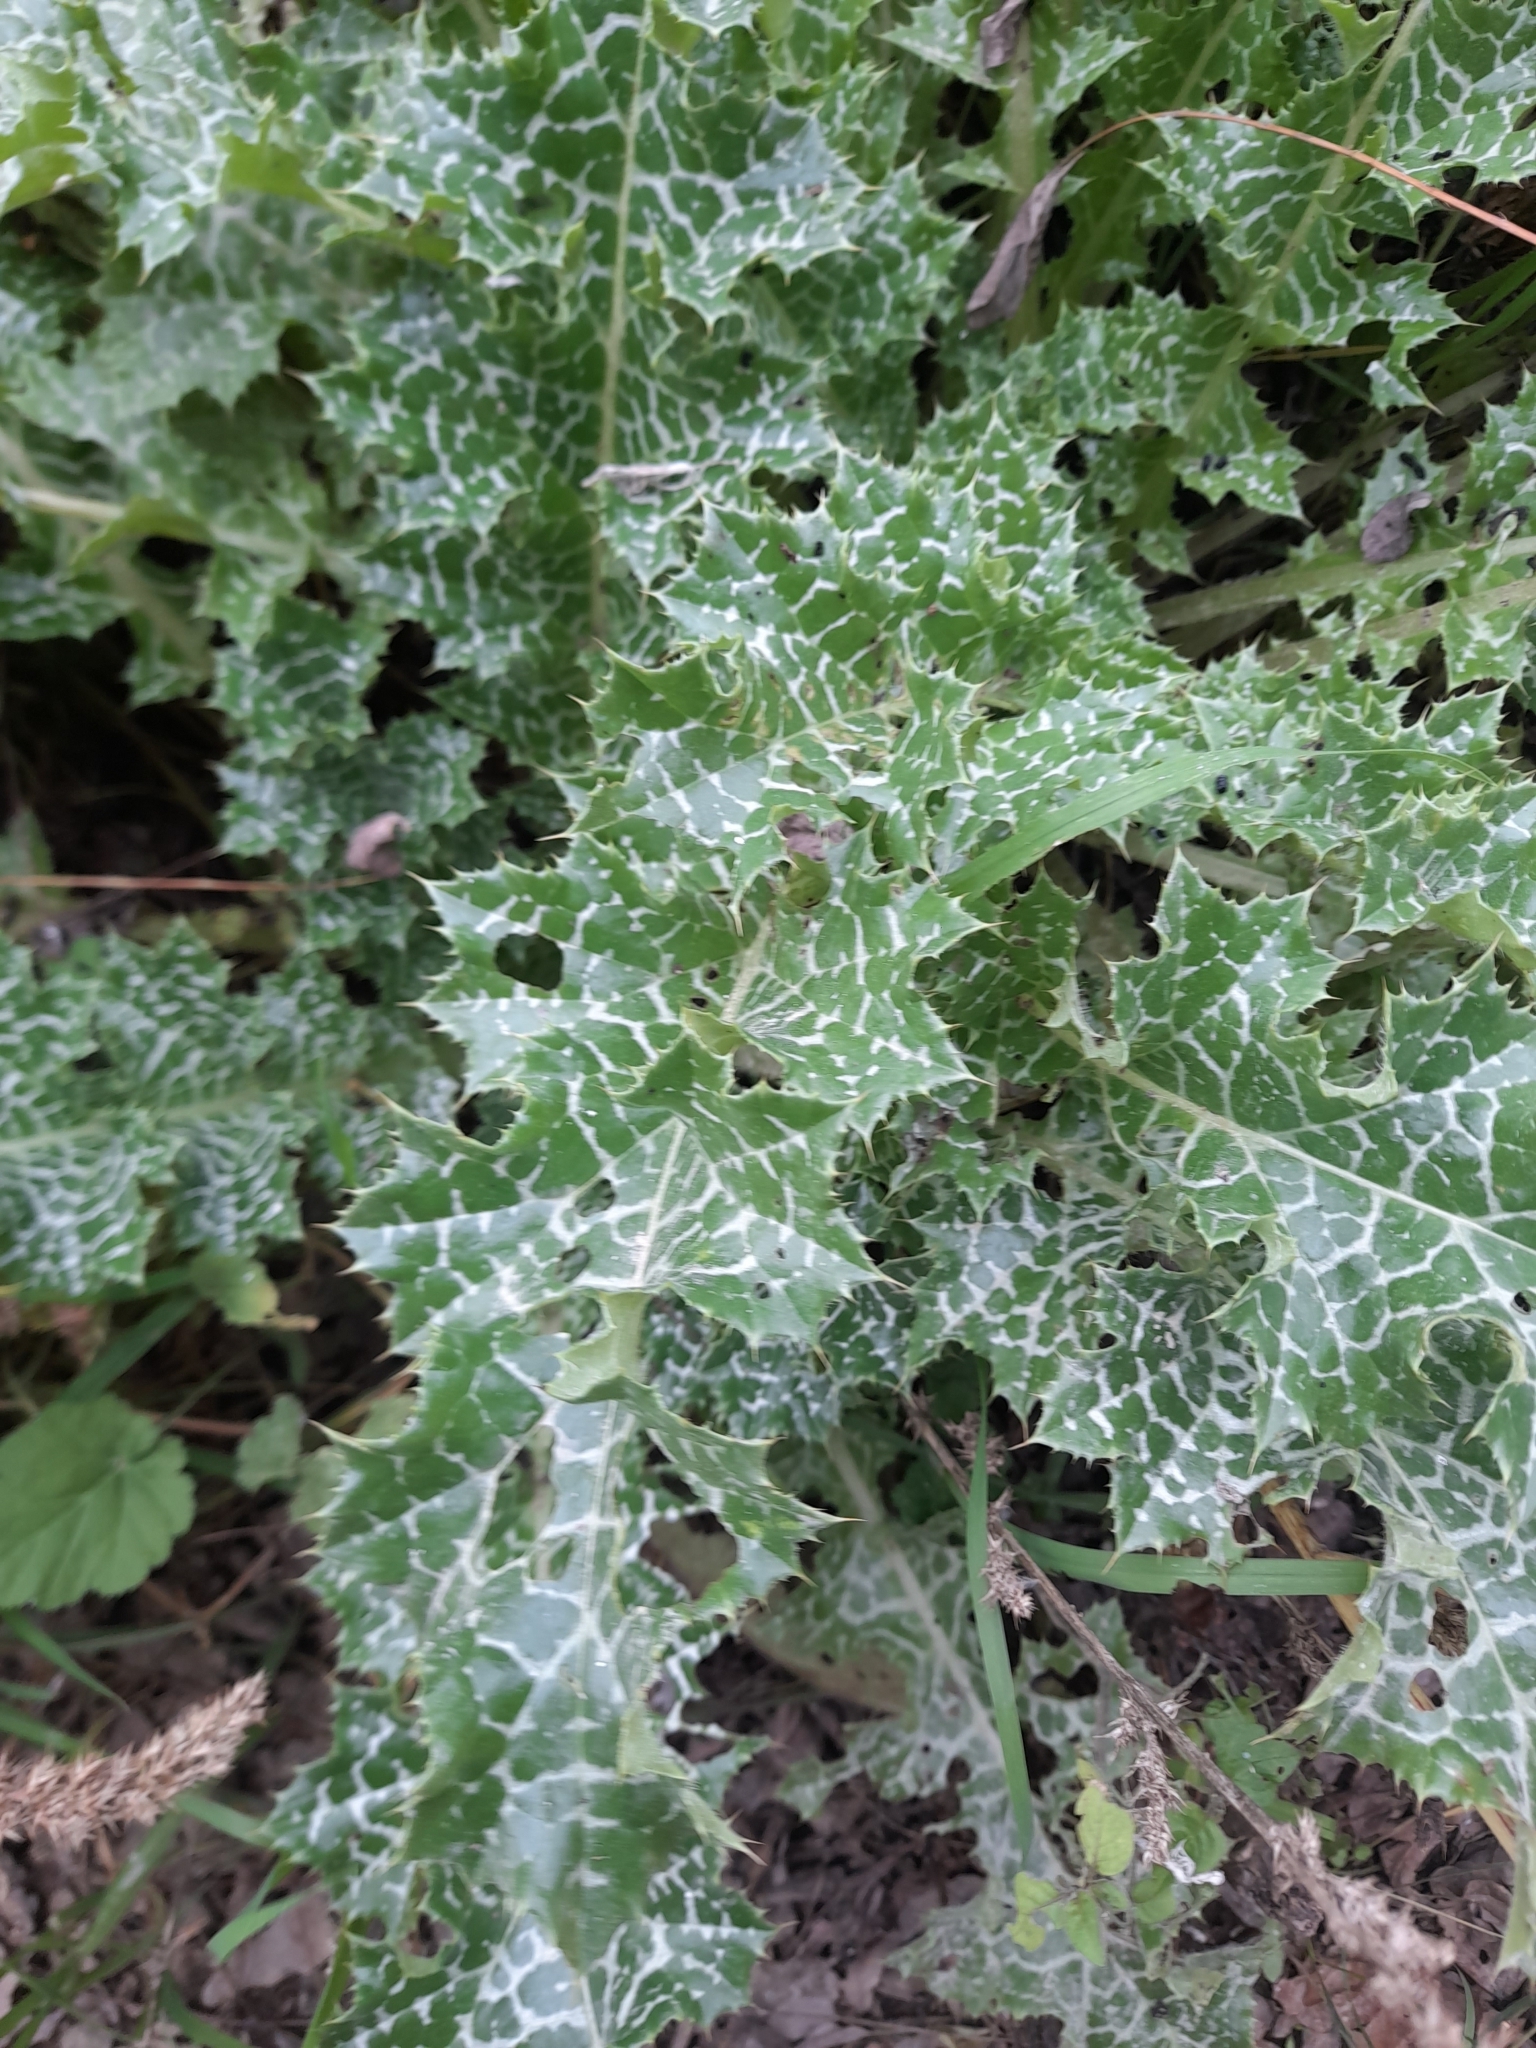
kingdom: Plantae
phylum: Tracheophyta
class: Magnoliopsida
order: Asterales
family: Asteraceae
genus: Silybum
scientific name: Silybum marianum
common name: Milk thistle
